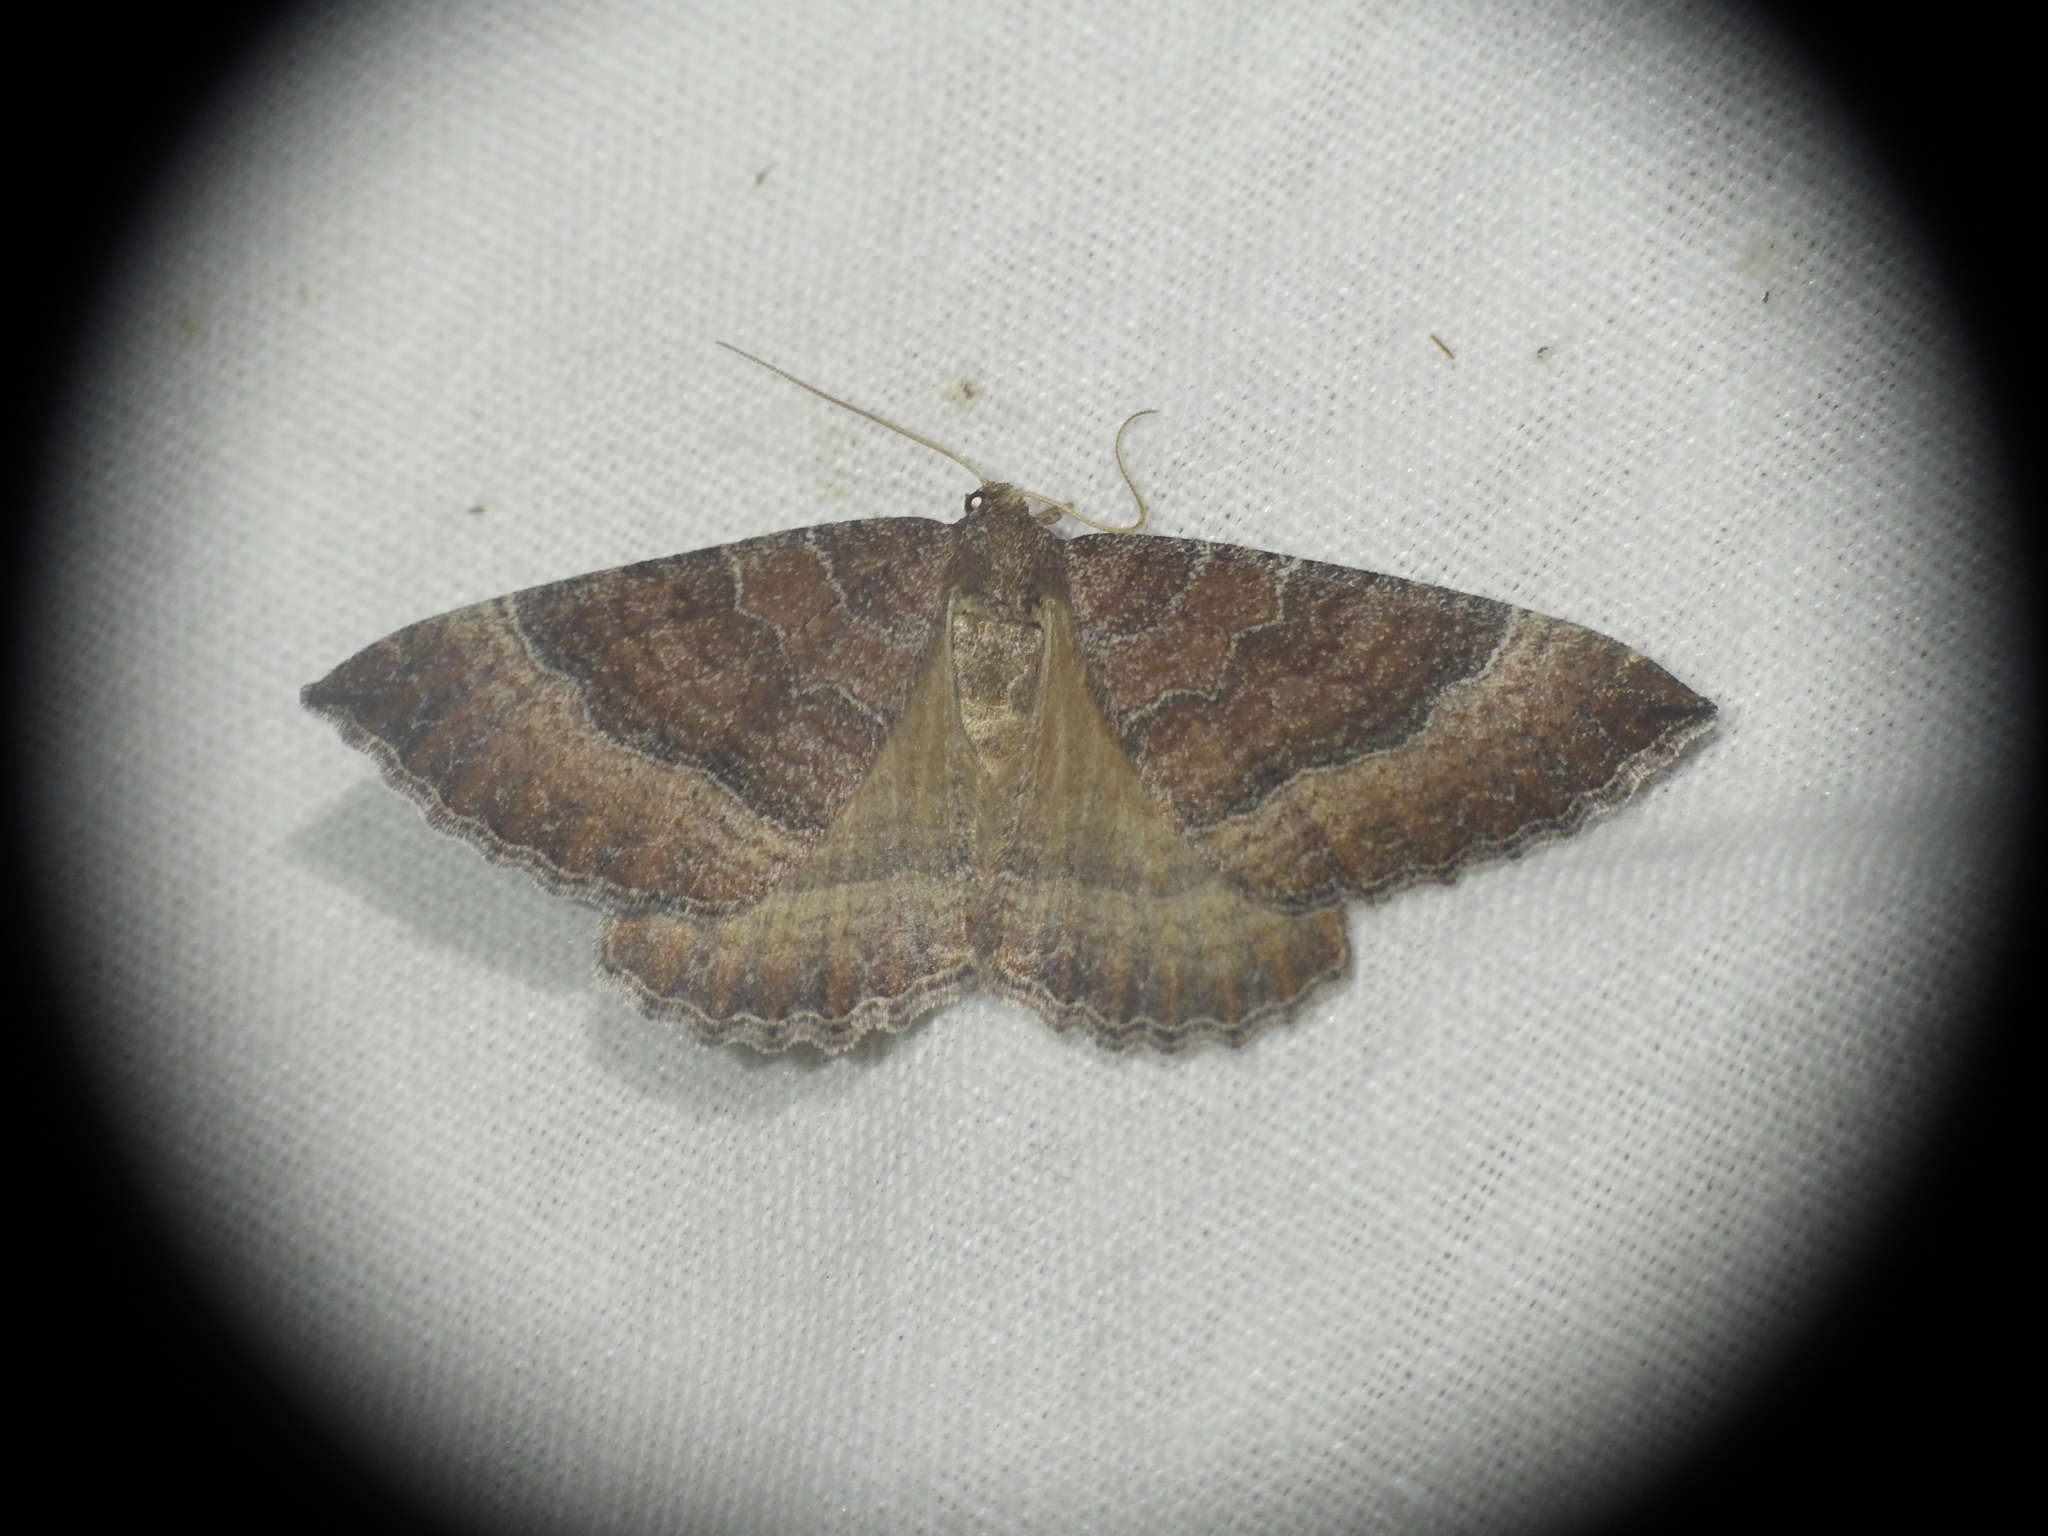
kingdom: Animalia
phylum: Arthropoda
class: Insecta
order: Lepidoptera
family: Geometridae
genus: Larentia
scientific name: Larentia clavaria
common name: Mallow
